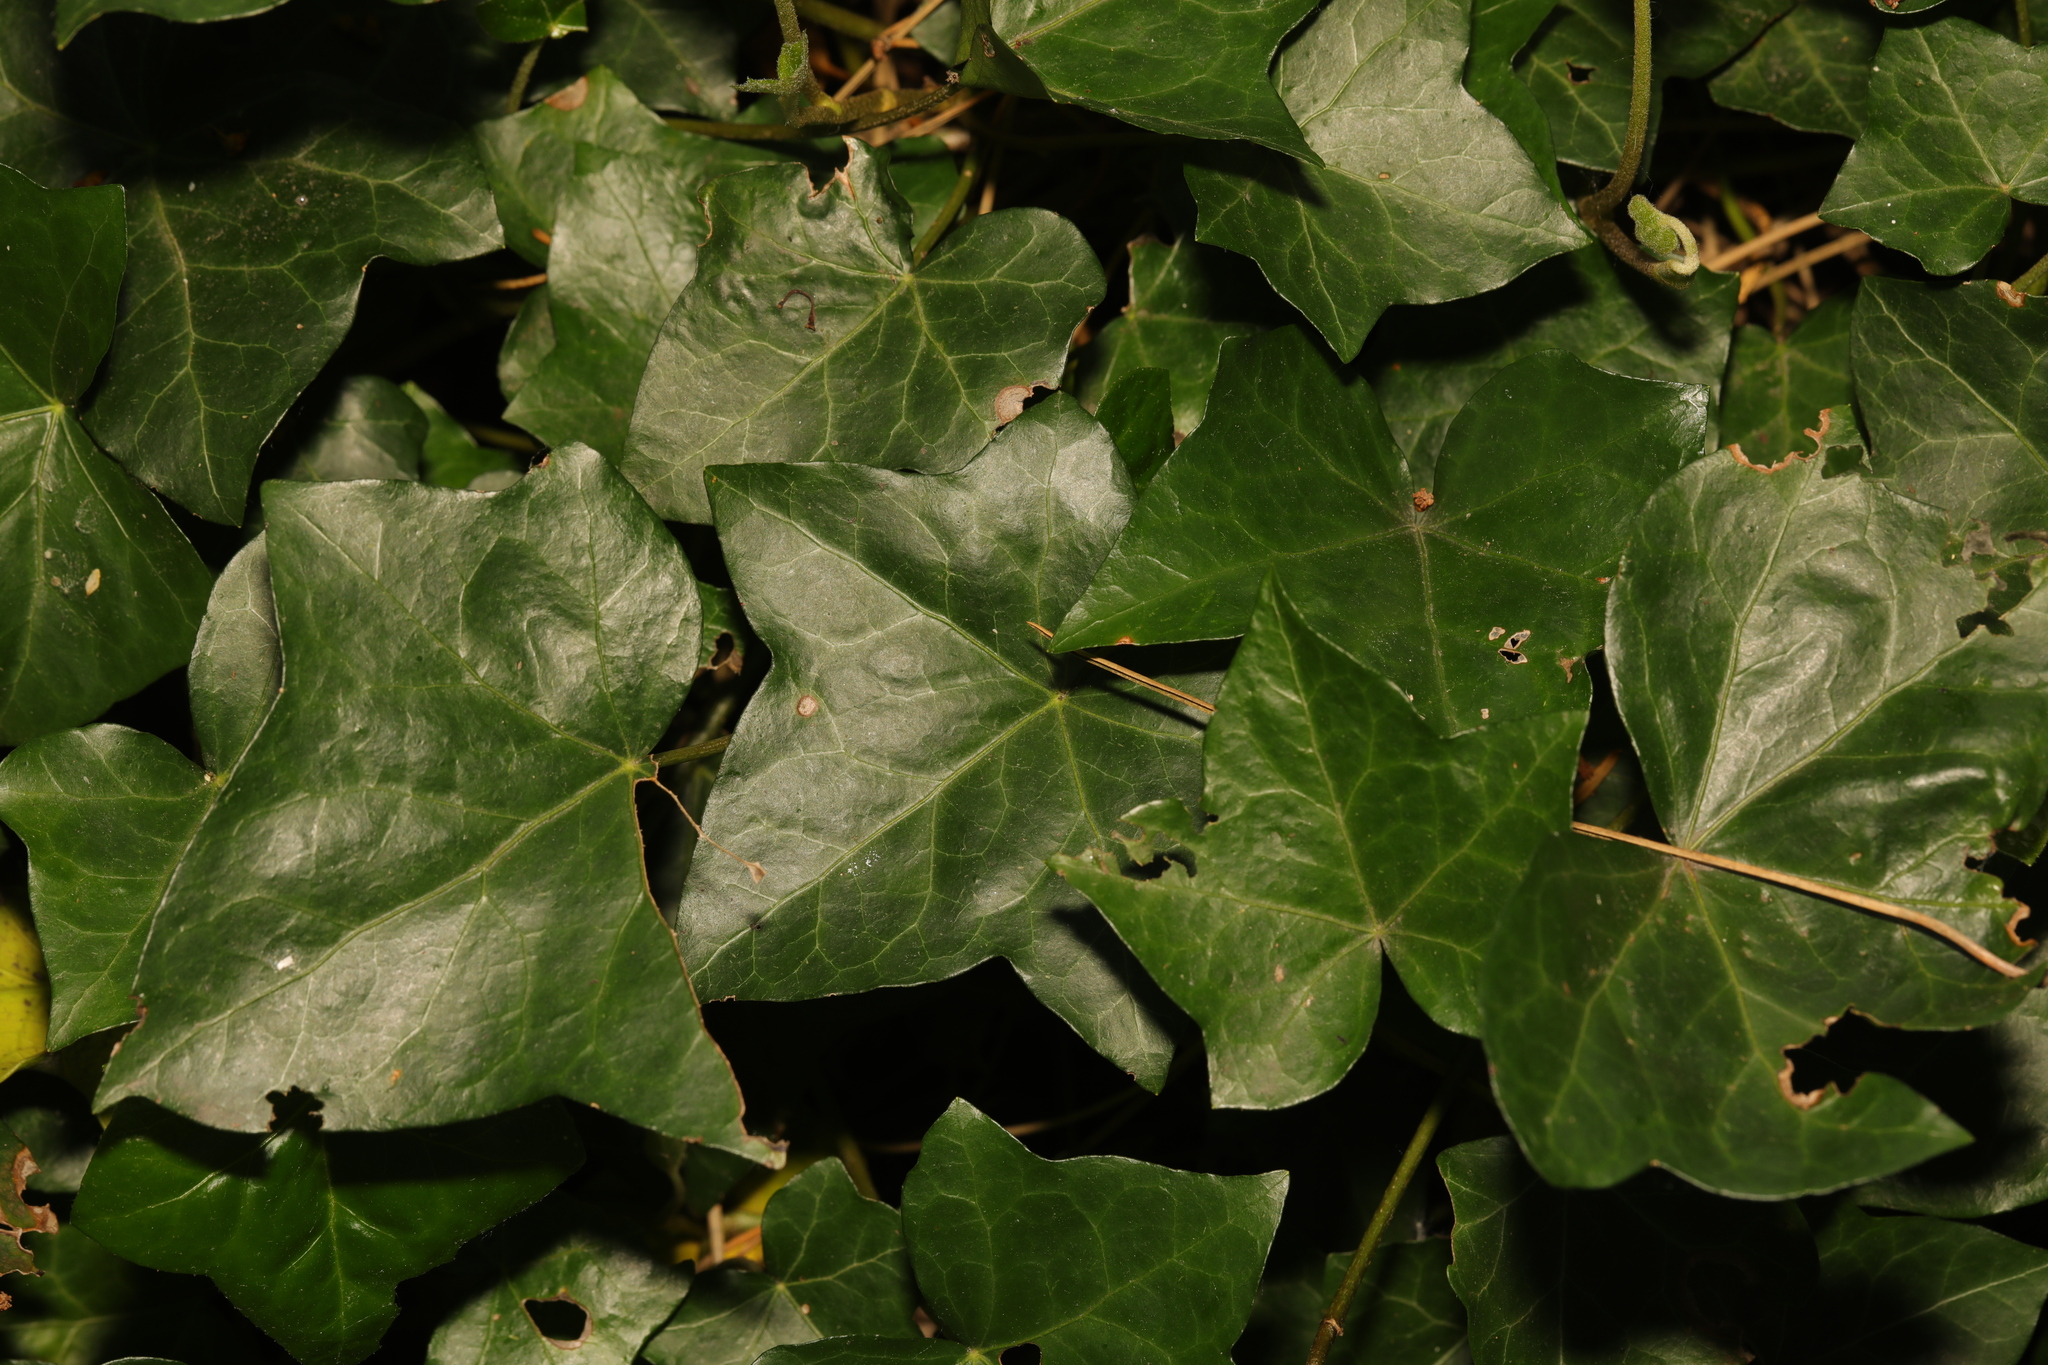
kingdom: Plantae
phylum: Tracheophyta
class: Magnoliopsida
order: Apiales
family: Araliaceae
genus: Hedera
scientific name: Hedera helix
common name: Ivy
